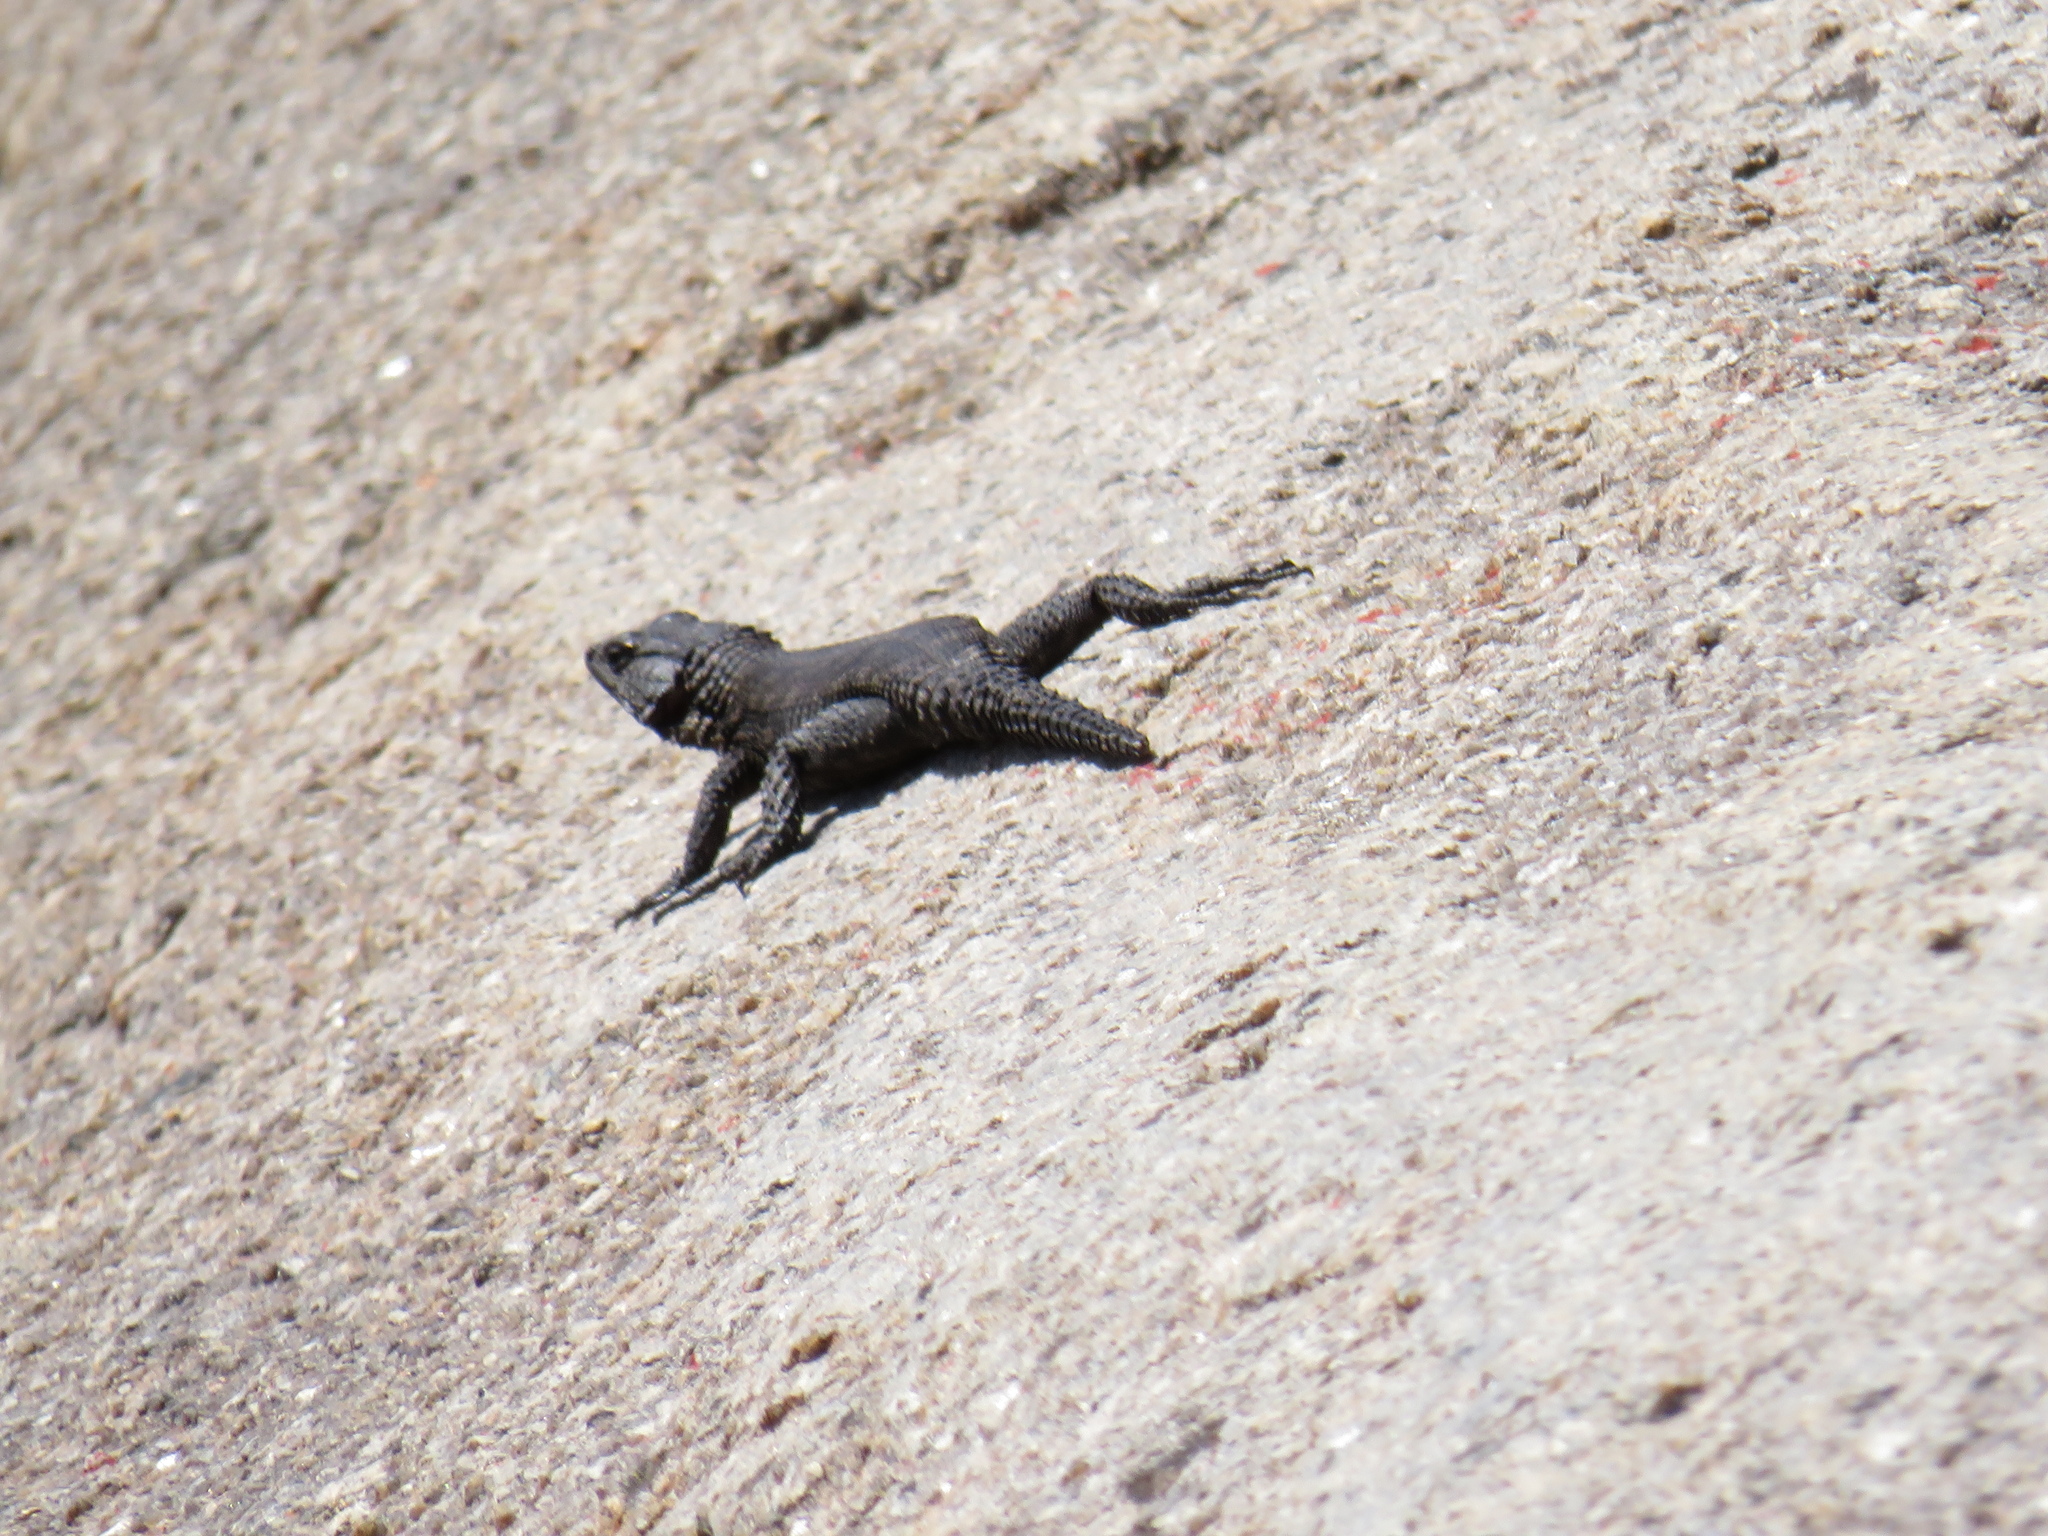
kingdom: Animalia
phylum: Chordata
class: Squamata
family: Cordylidae
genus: Karusasaurus
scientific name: Karusasaurus polyzonus
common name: Karoo girdled lizard
